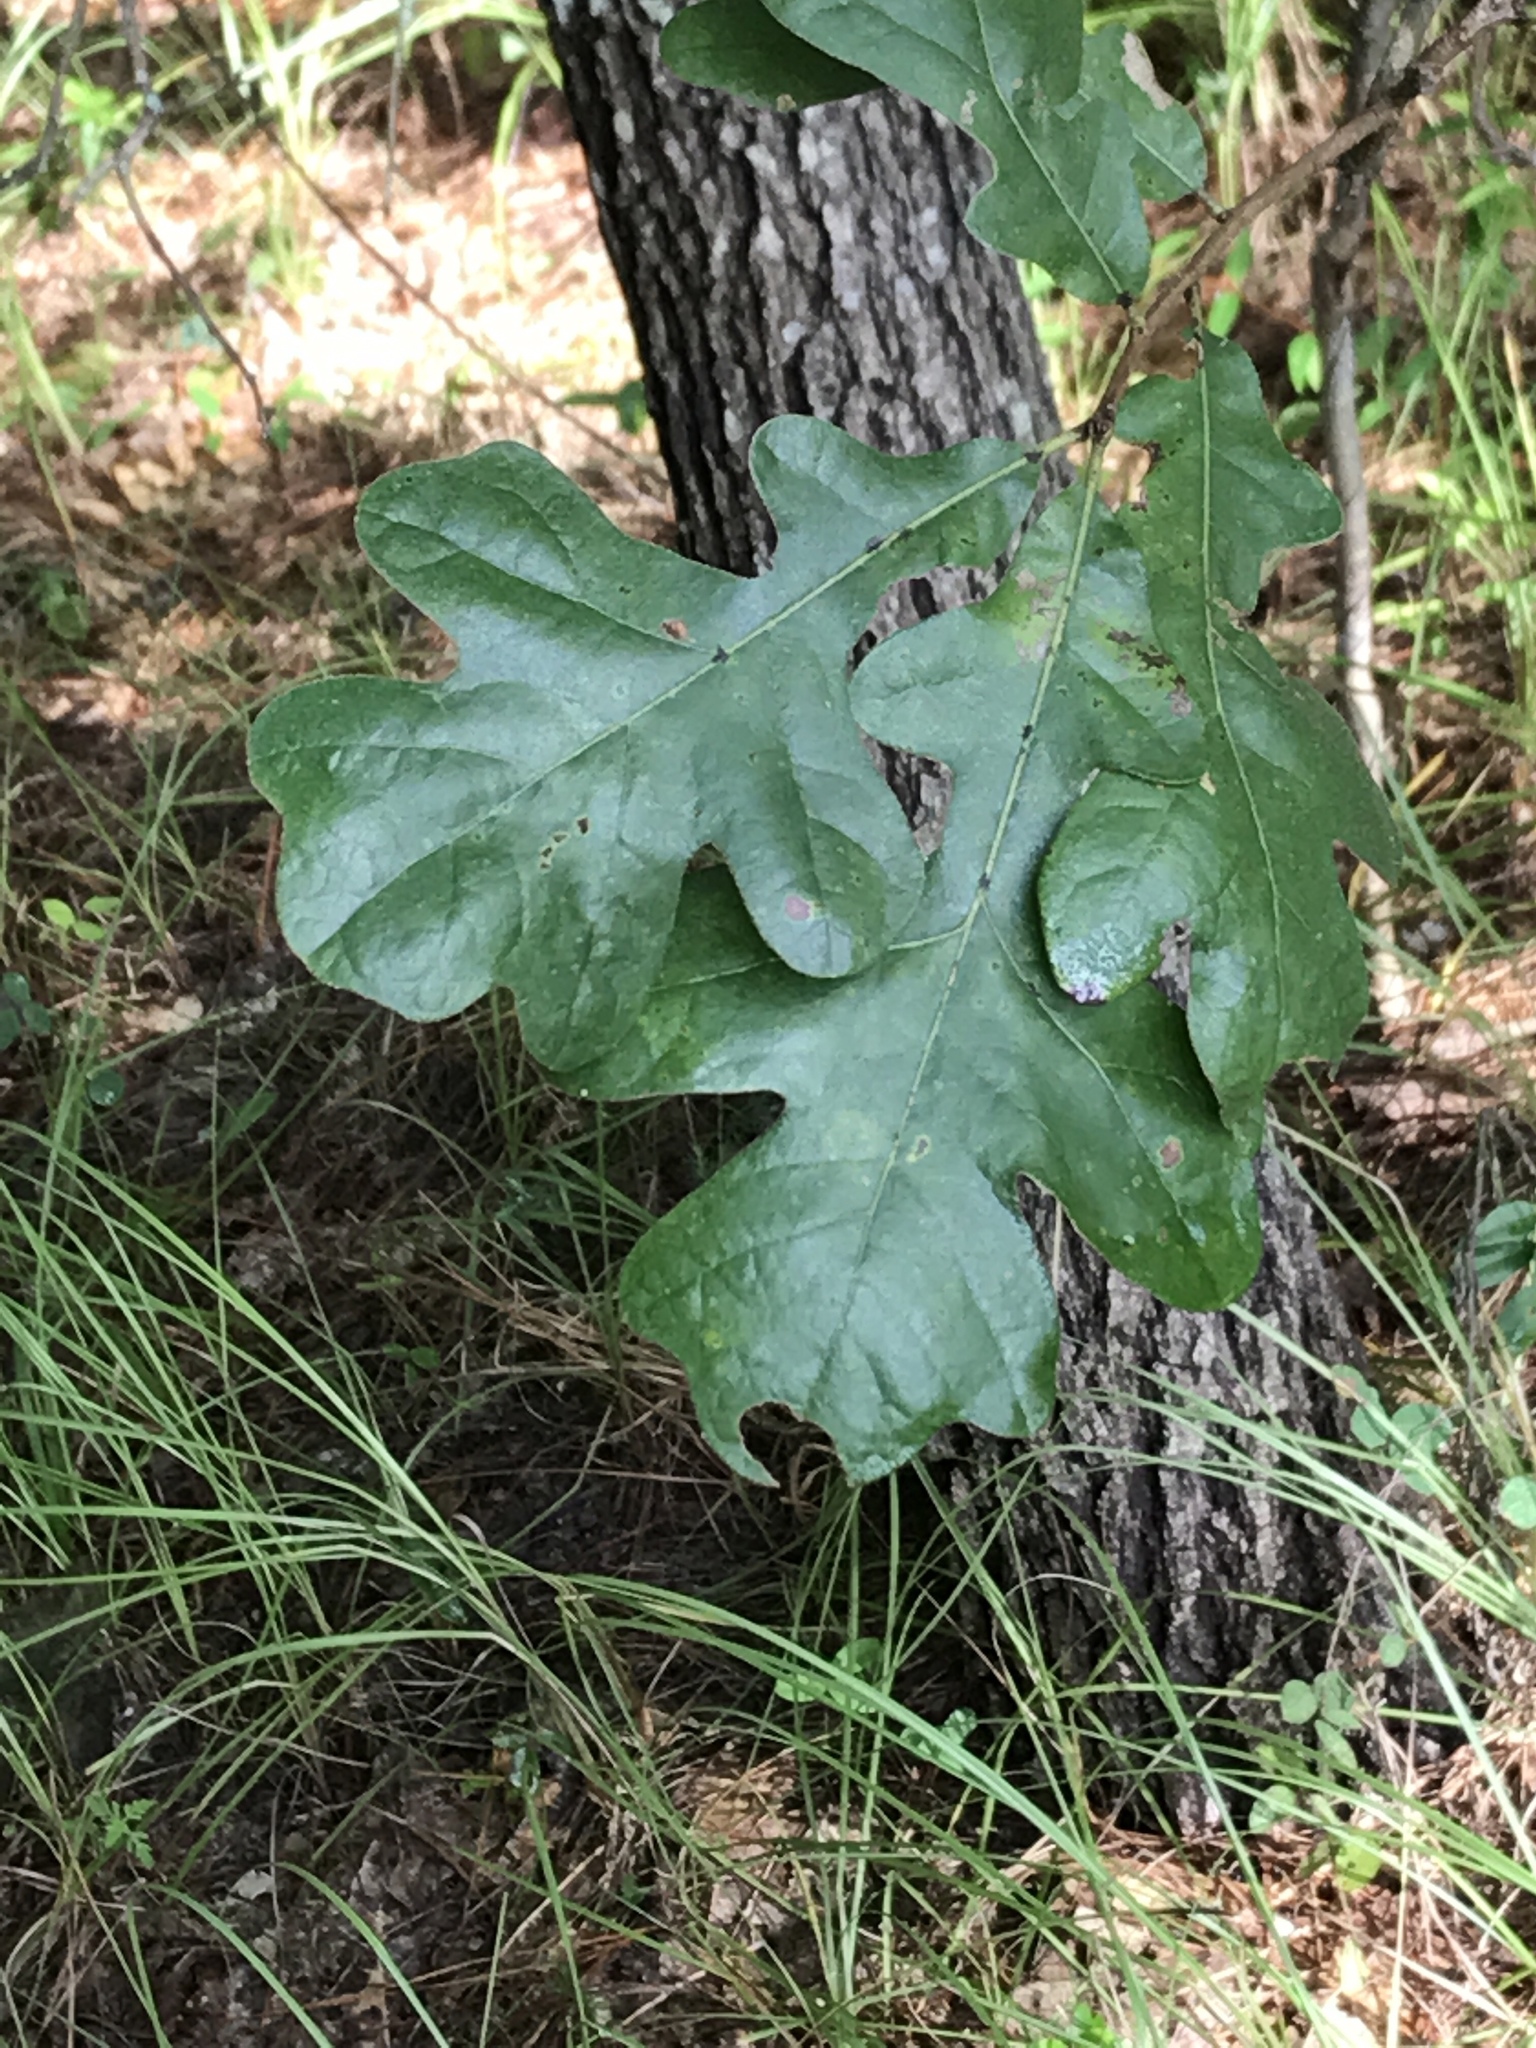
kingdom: Plantae
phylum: Tracheophyta
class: Magnoliopsida
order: Fagales
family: Fagaceae
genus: Quercus
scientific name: Quercus stellata
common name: Post oak
